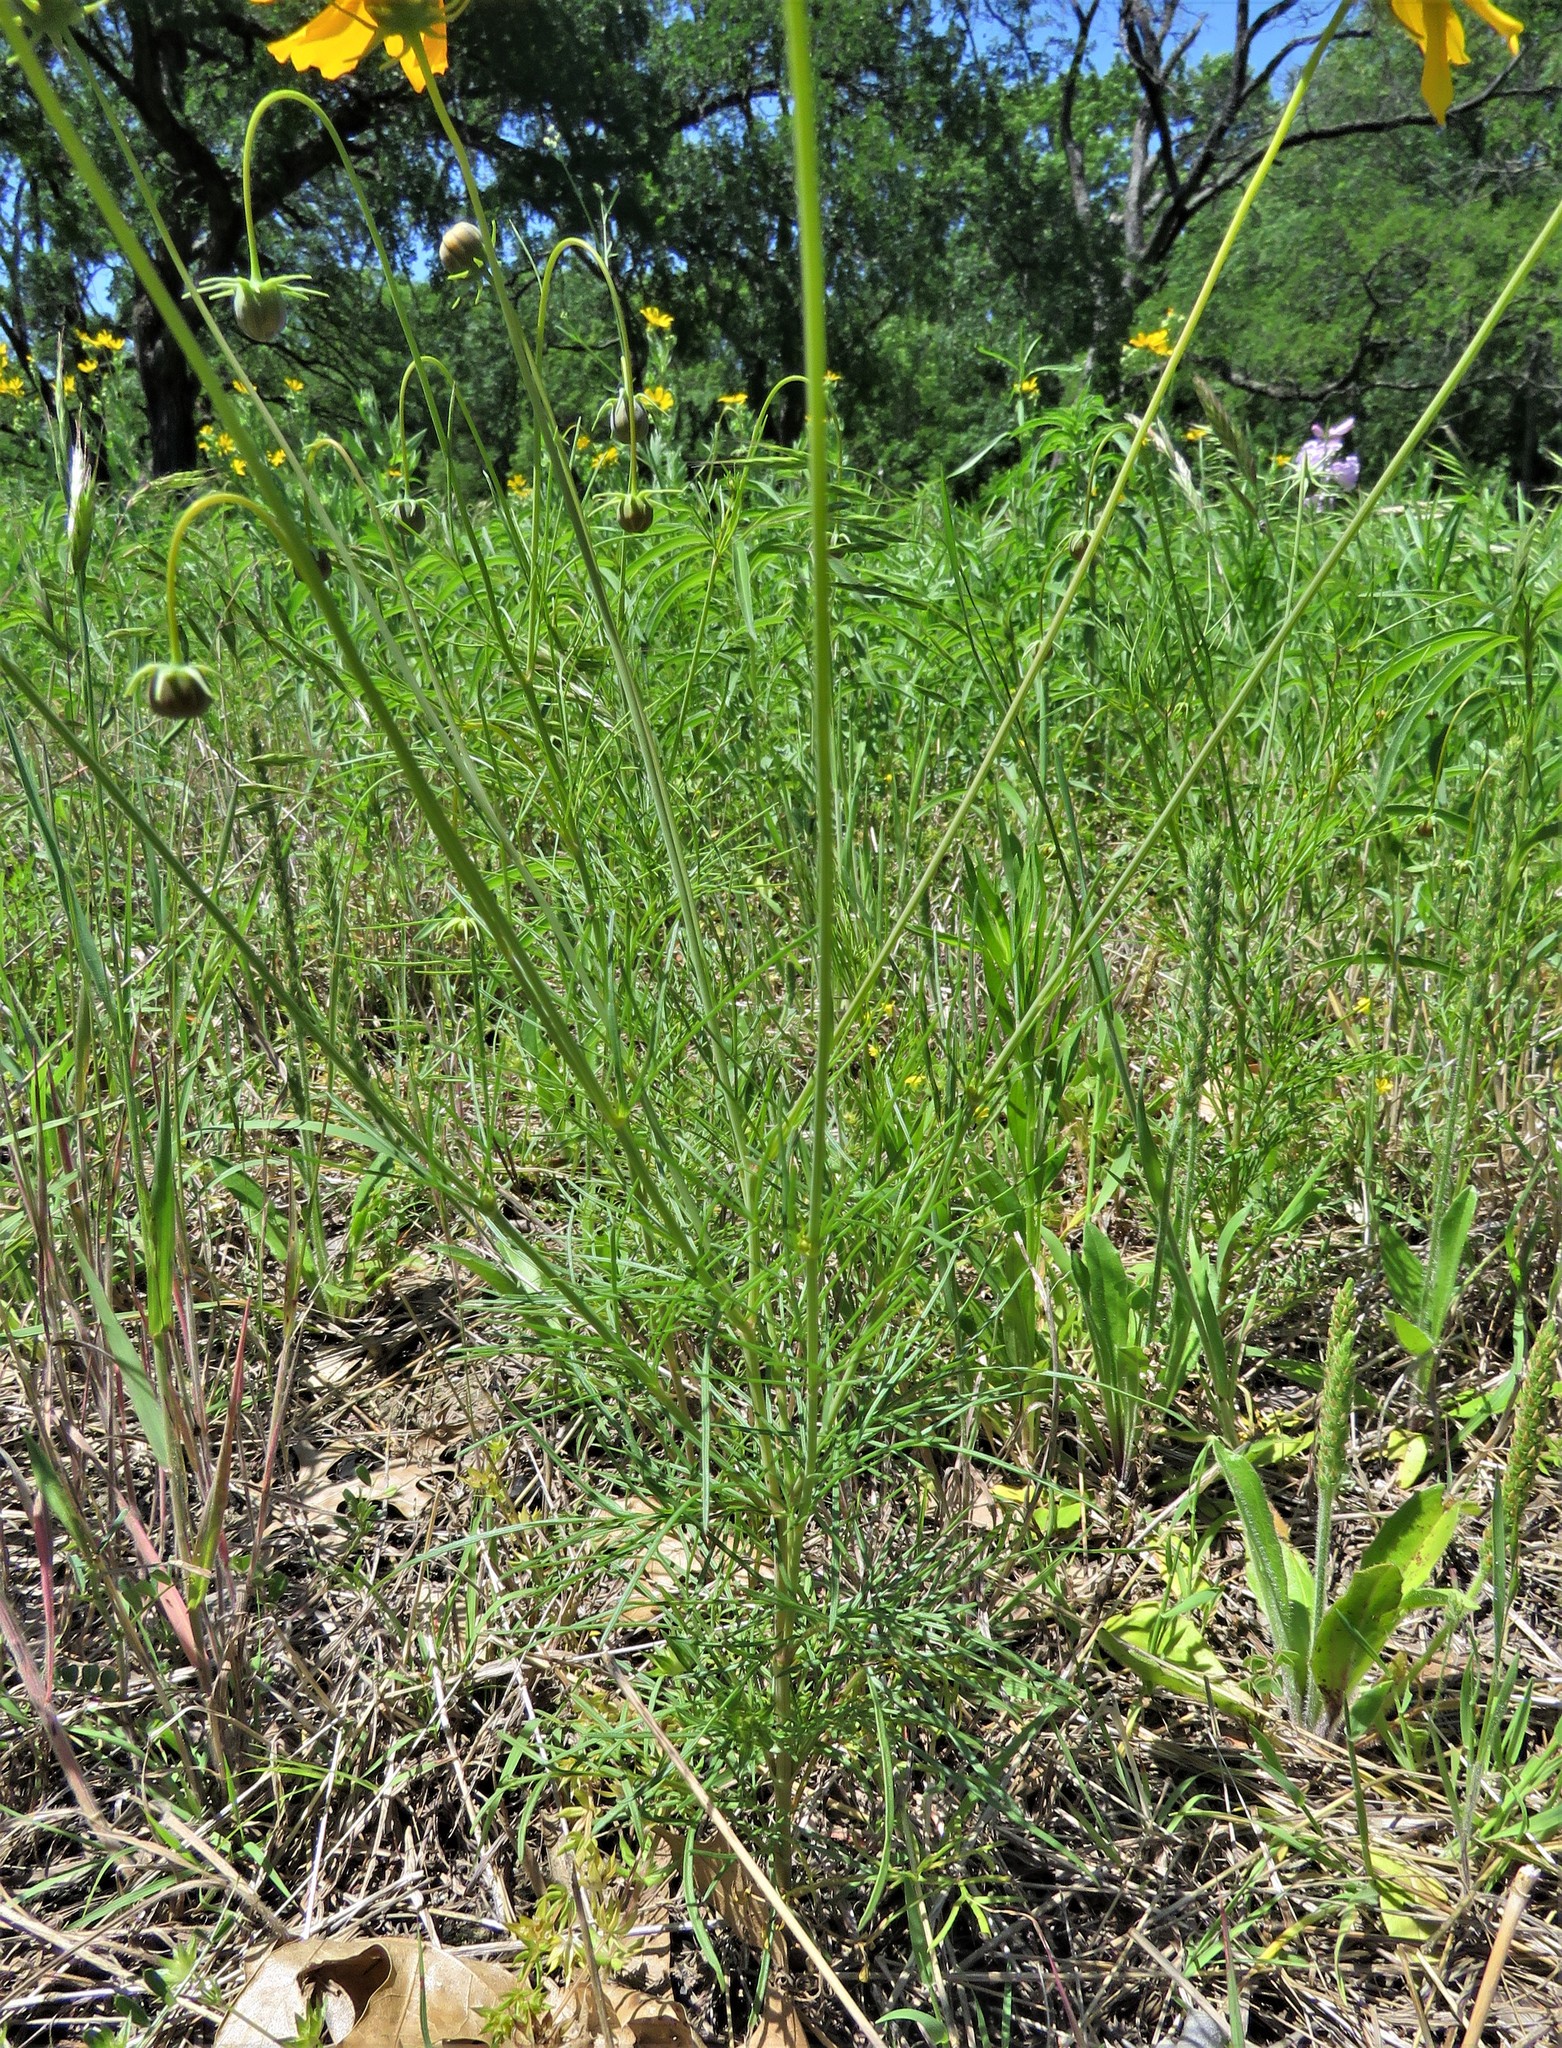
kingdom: Plantae
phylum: Tracheophyta
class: Magnoliopsida
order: Asterales
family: Asteraceae
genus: Thelesperma
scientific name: Thelesperma filifolium
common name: Stiff greenthread
